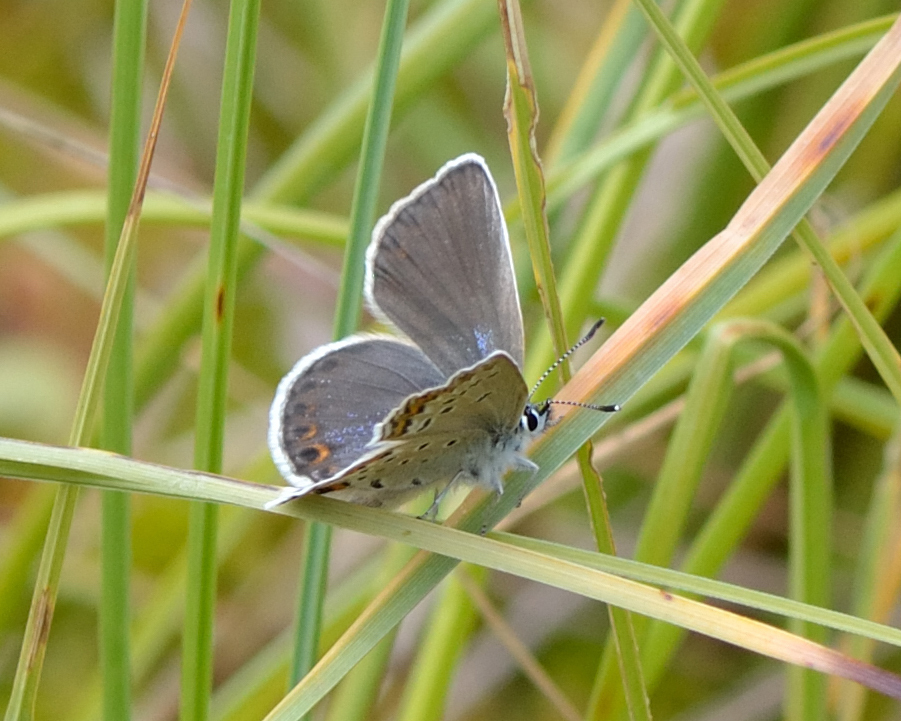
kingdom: Animalia
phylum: Arthropoda
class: Insecta
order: Lepidoptera
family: Lycaenidae
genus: Lycaeides
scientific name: Lycaeides idas
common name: Northern blue
